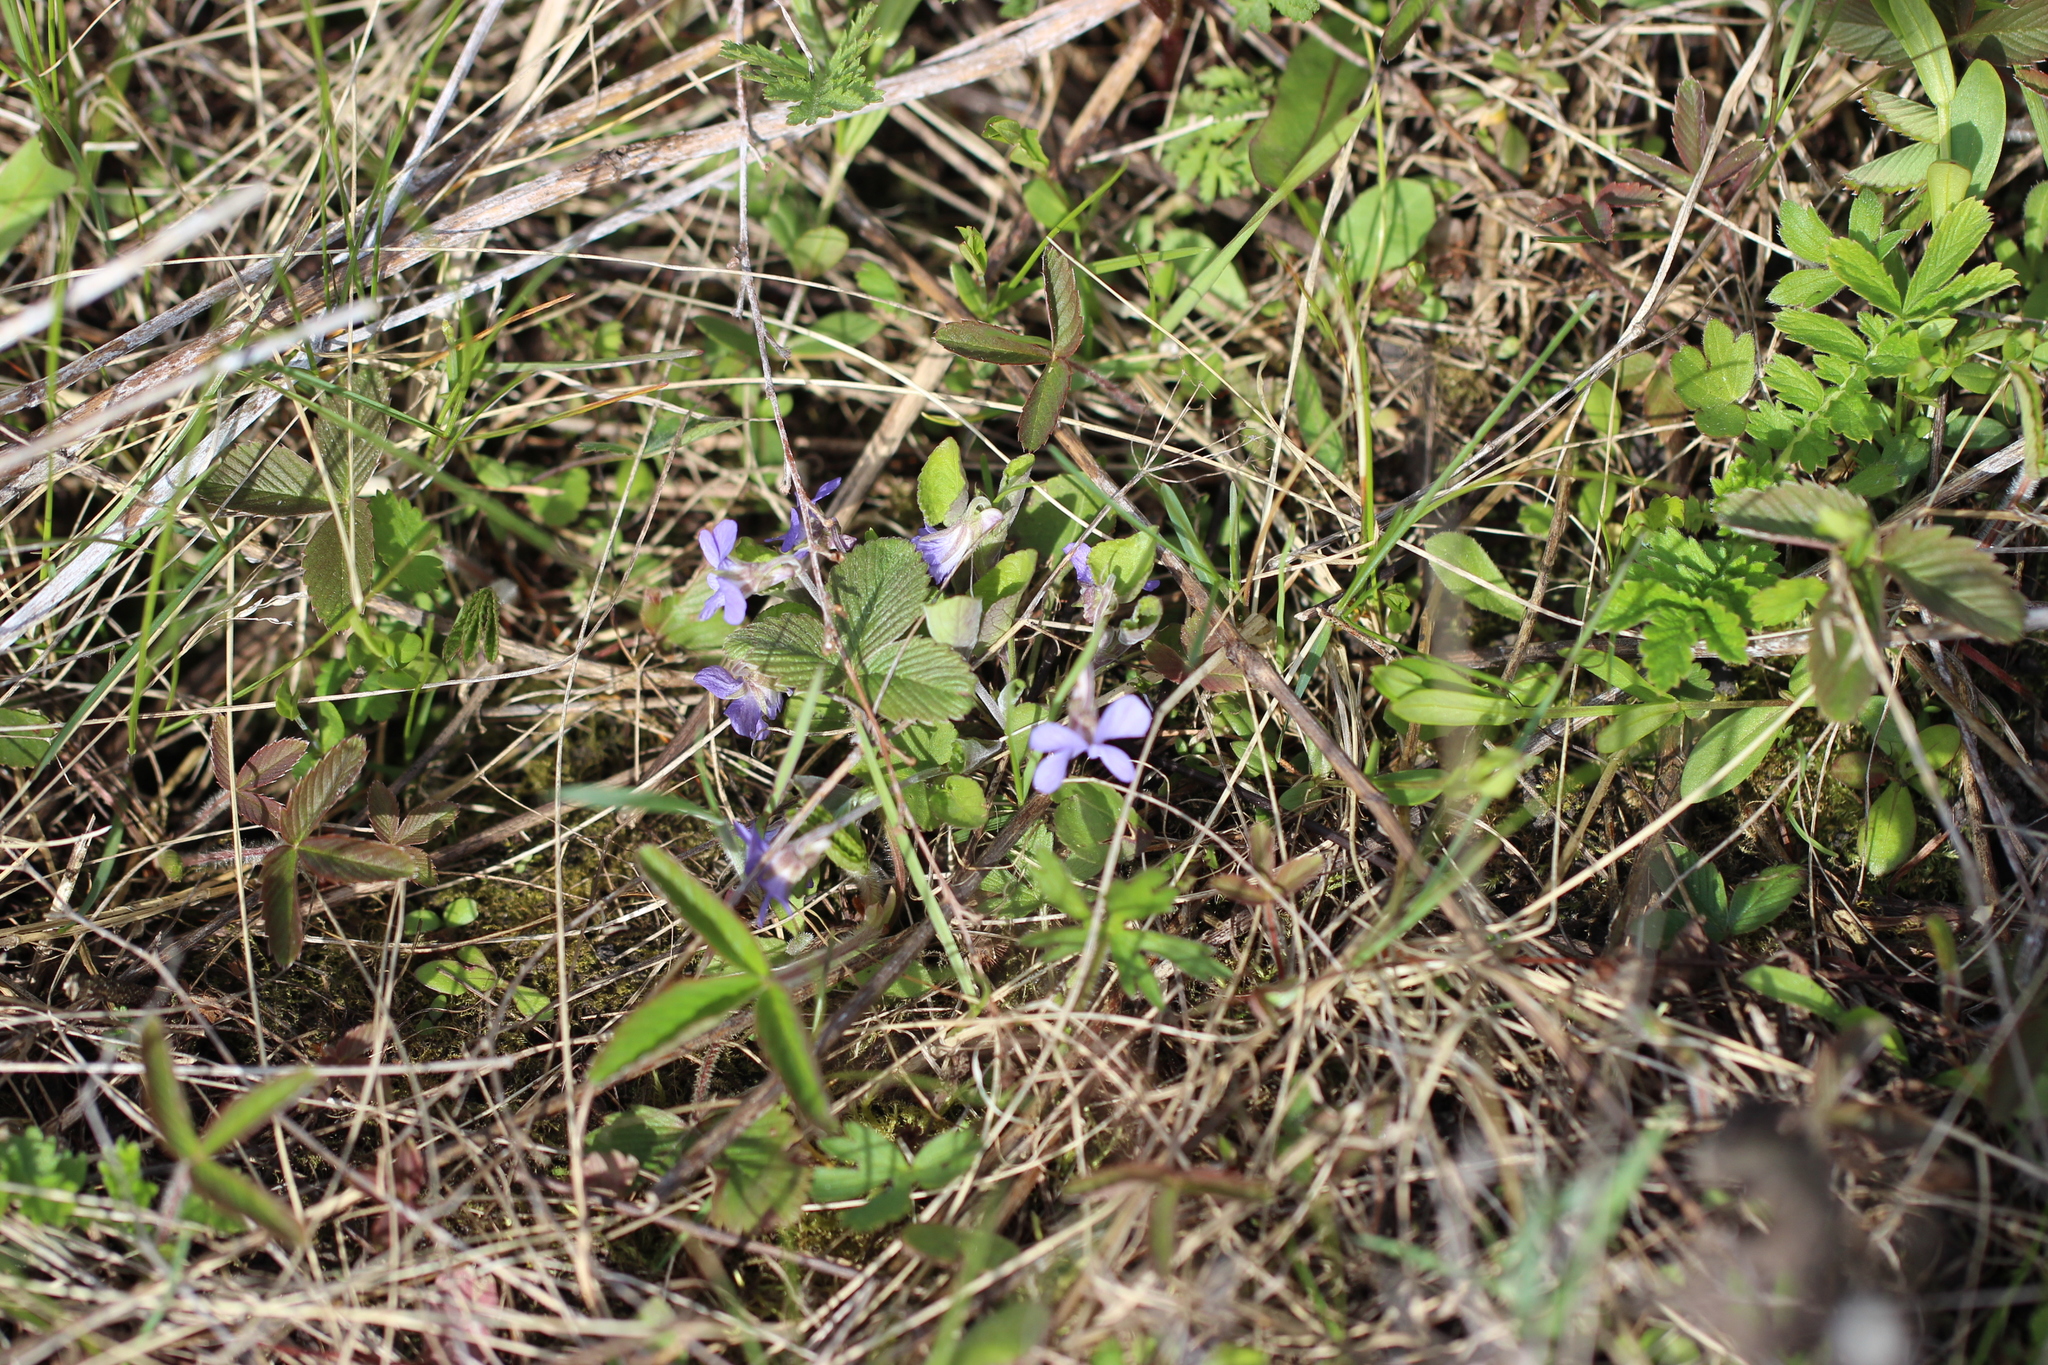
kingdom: Plantae
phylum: Tracheophyta
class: Magnoliopsida
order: Malpighiales
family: Violaceae
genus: Viola
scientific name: Viola rupestris
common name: Teesdale violet
